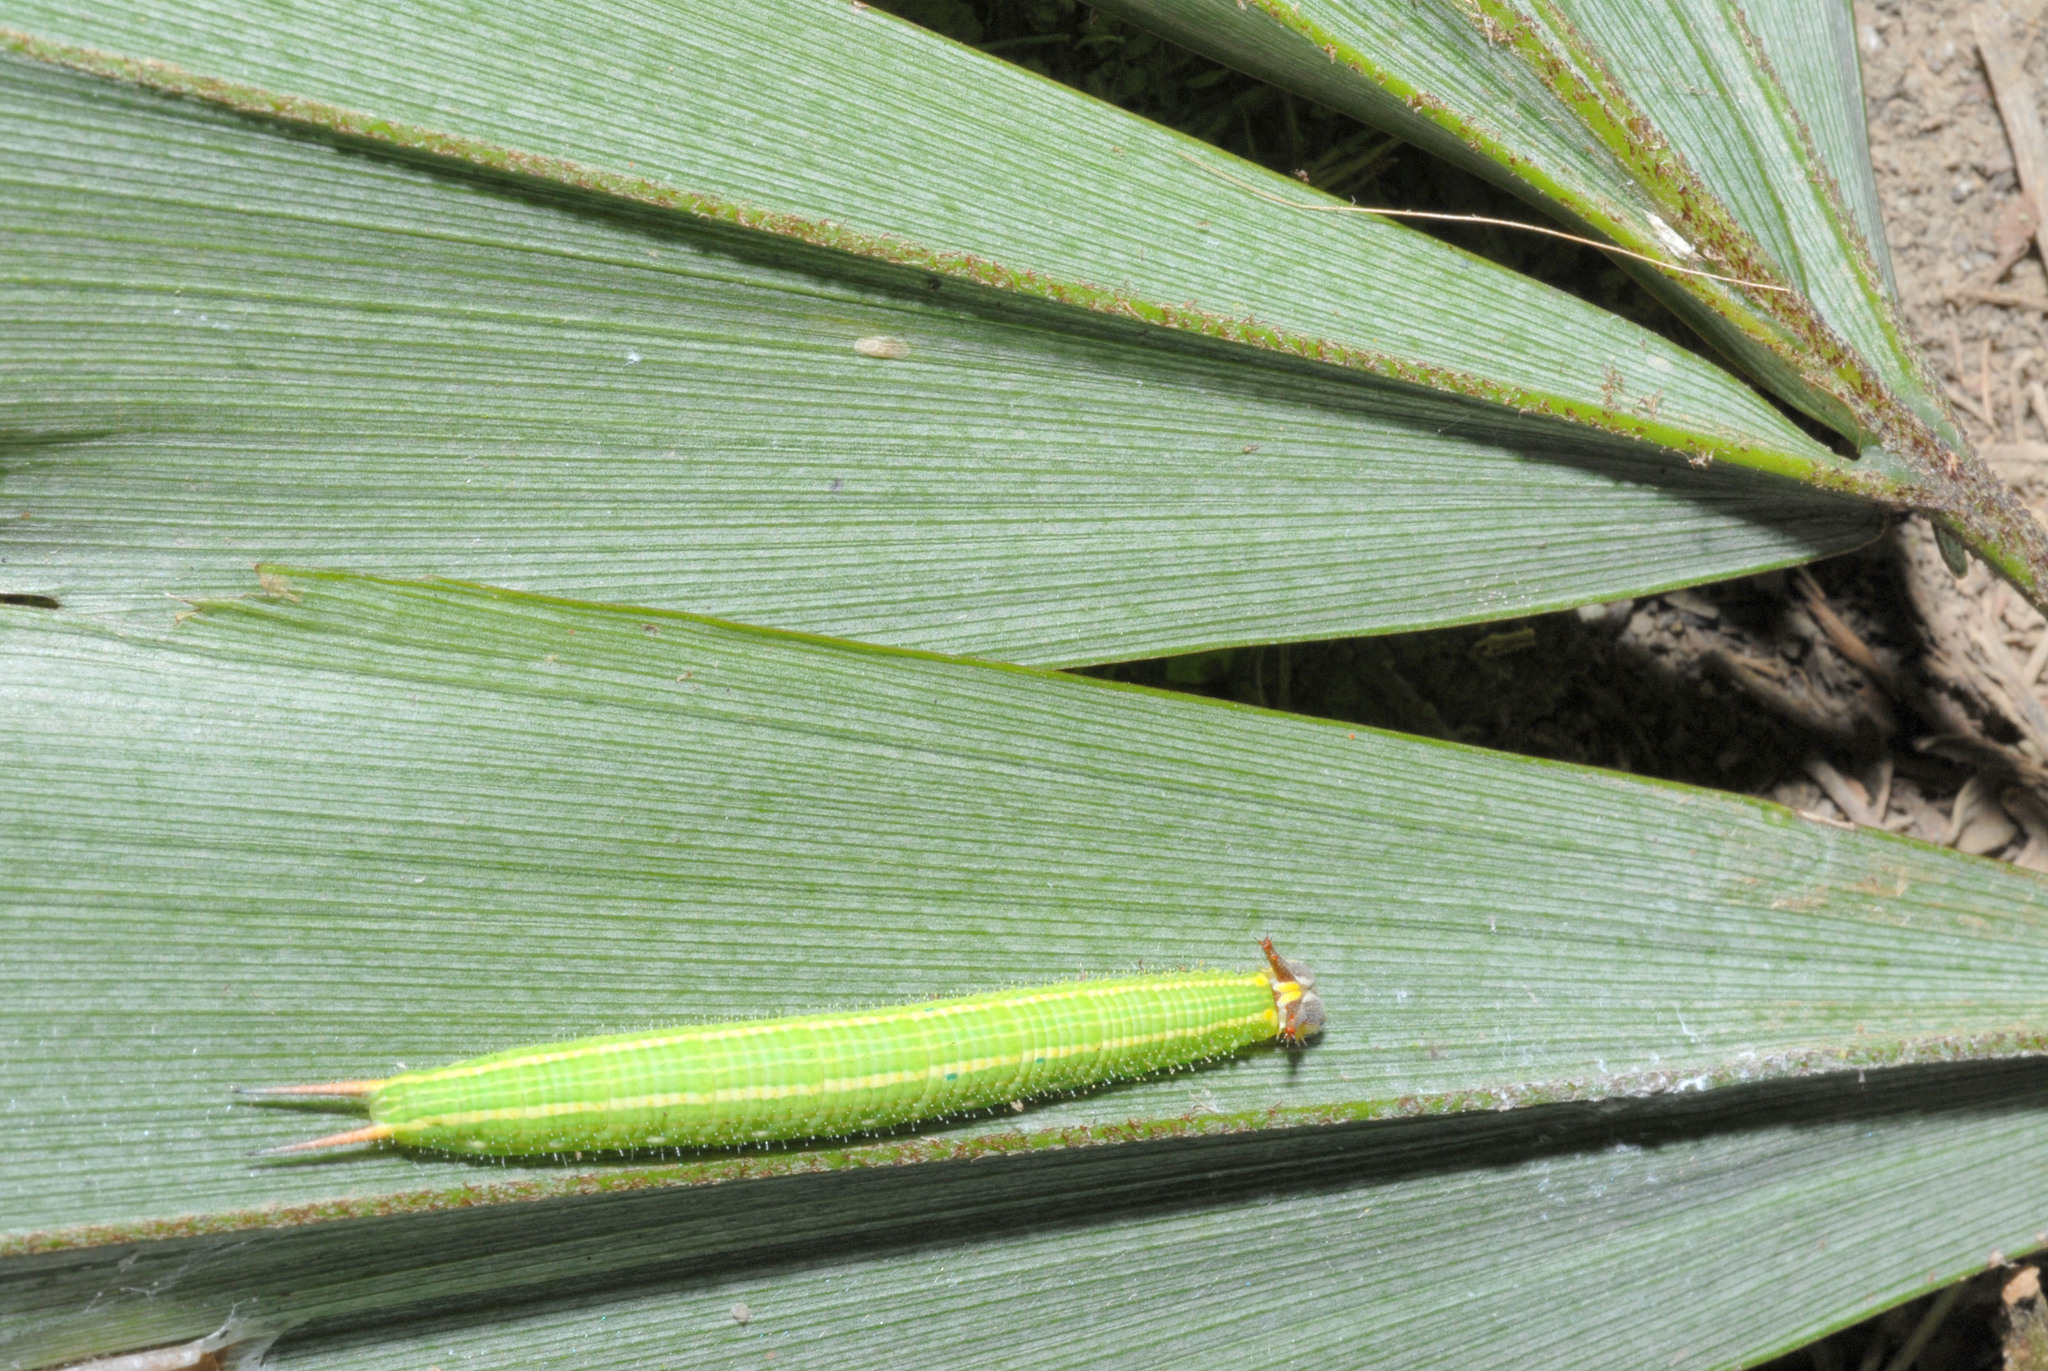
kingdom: Animalia
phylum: Arthropoda
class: Insecta
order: Lepidoptera
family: Nymphalidae
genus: Elymnias
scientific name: Elymnias hypermnestra
